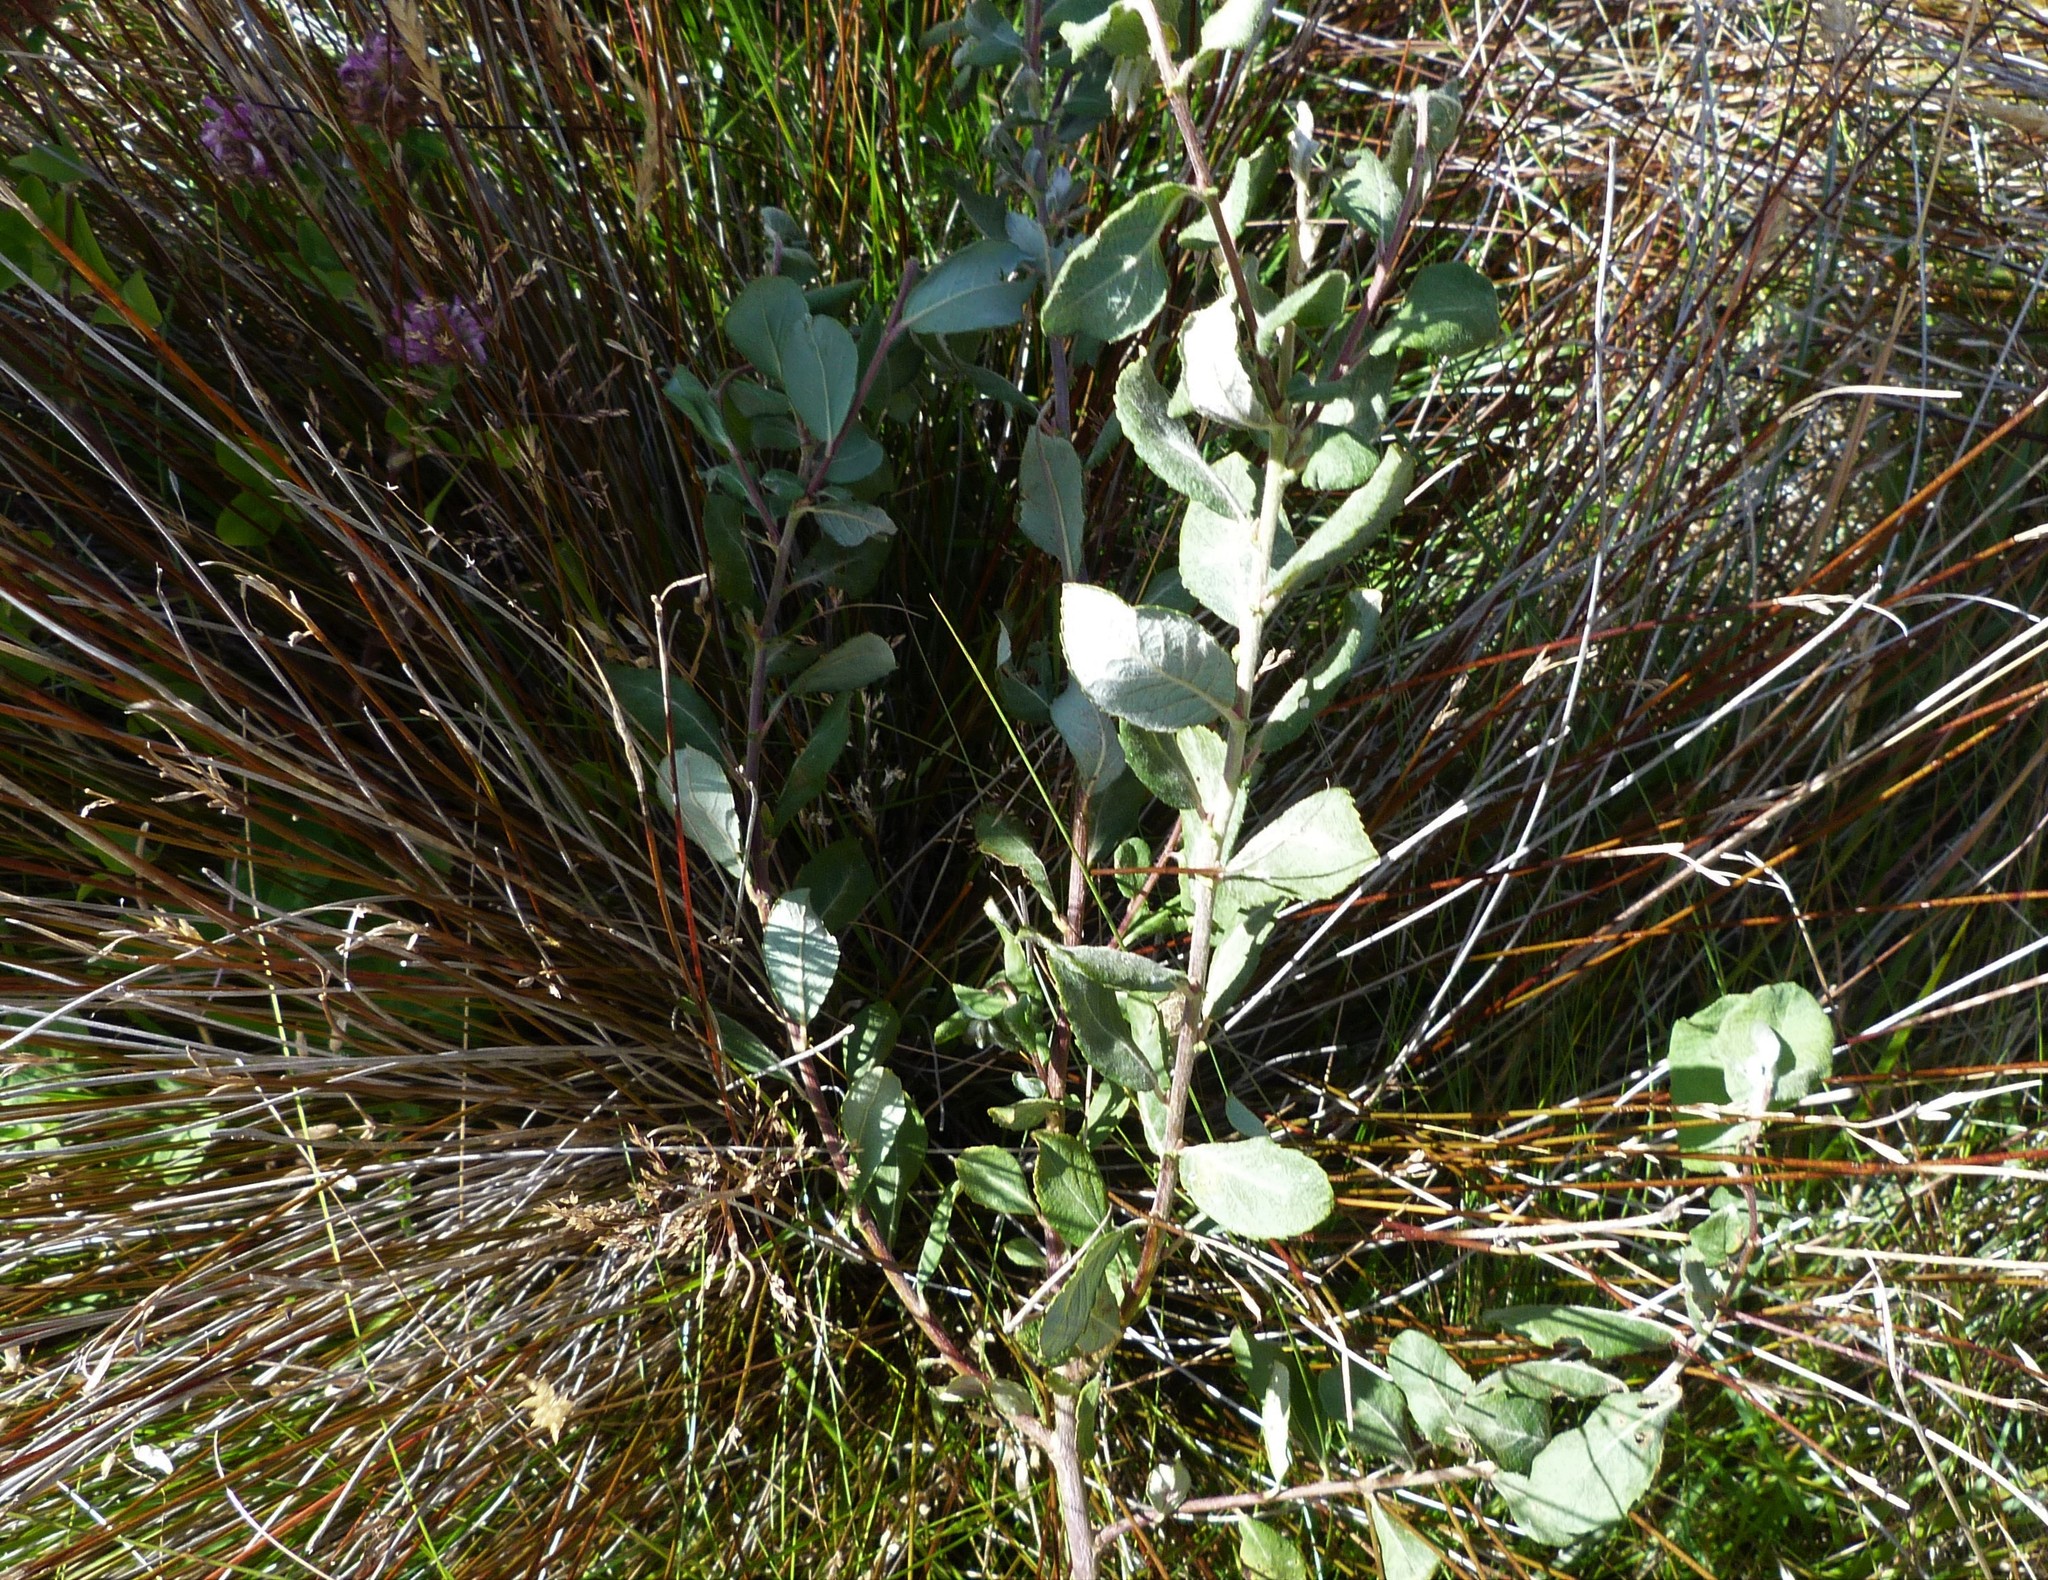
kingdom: Plantae
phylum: Tracheophyta
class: Magnoliopsida
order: Malpighiales
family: Salicaceae
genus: Salix
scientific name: Salix cinerea
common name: Common sallow
